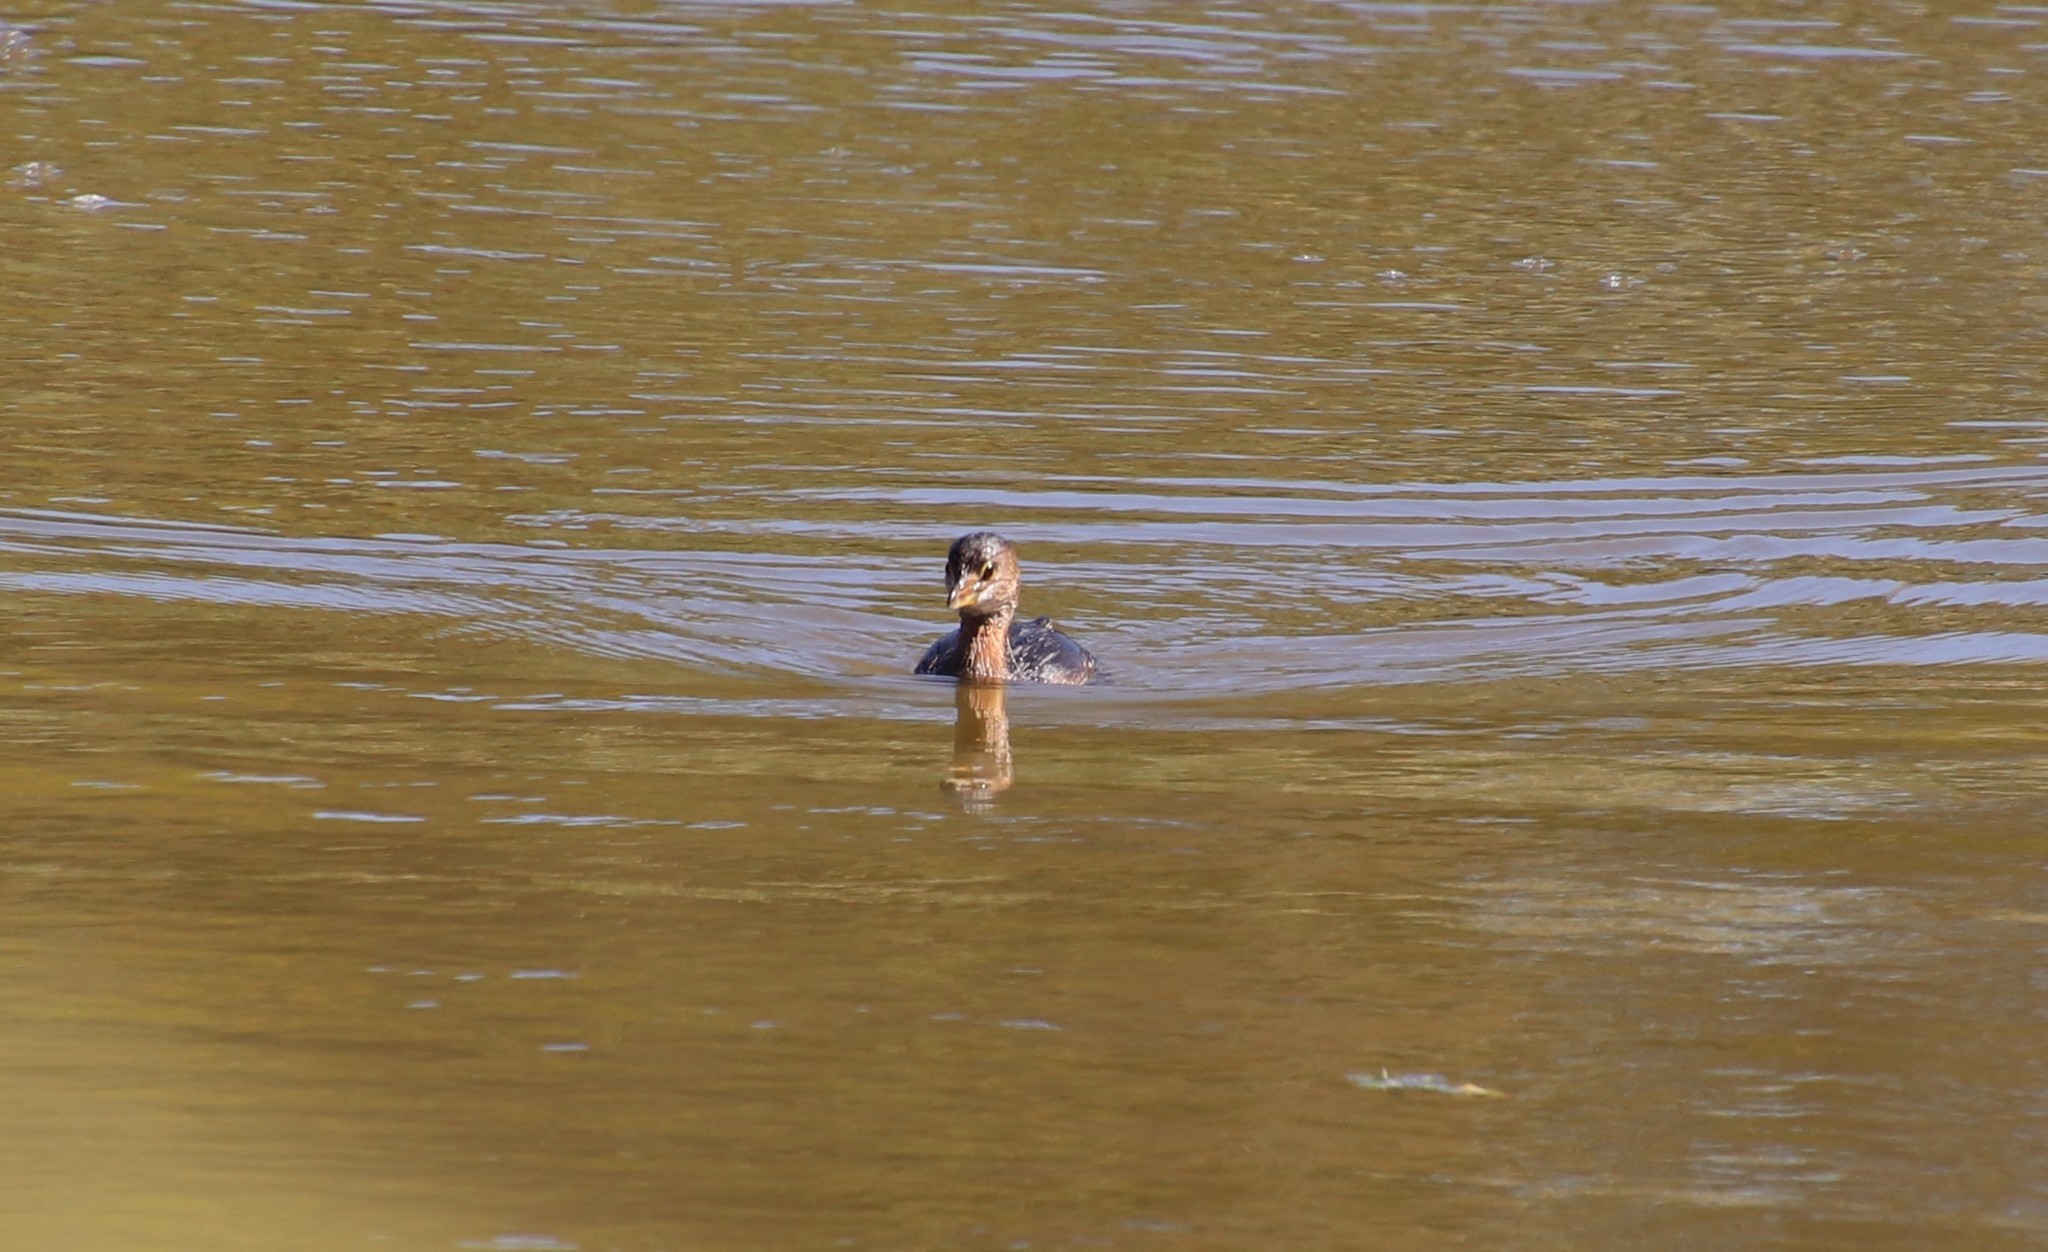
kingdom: Animalia
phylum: Chordata
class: Aves
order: Podicipediformes
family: Podicipedidae
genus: Podilymbus
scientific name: Podilymbus podiceps
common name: Pied-billed grebe
